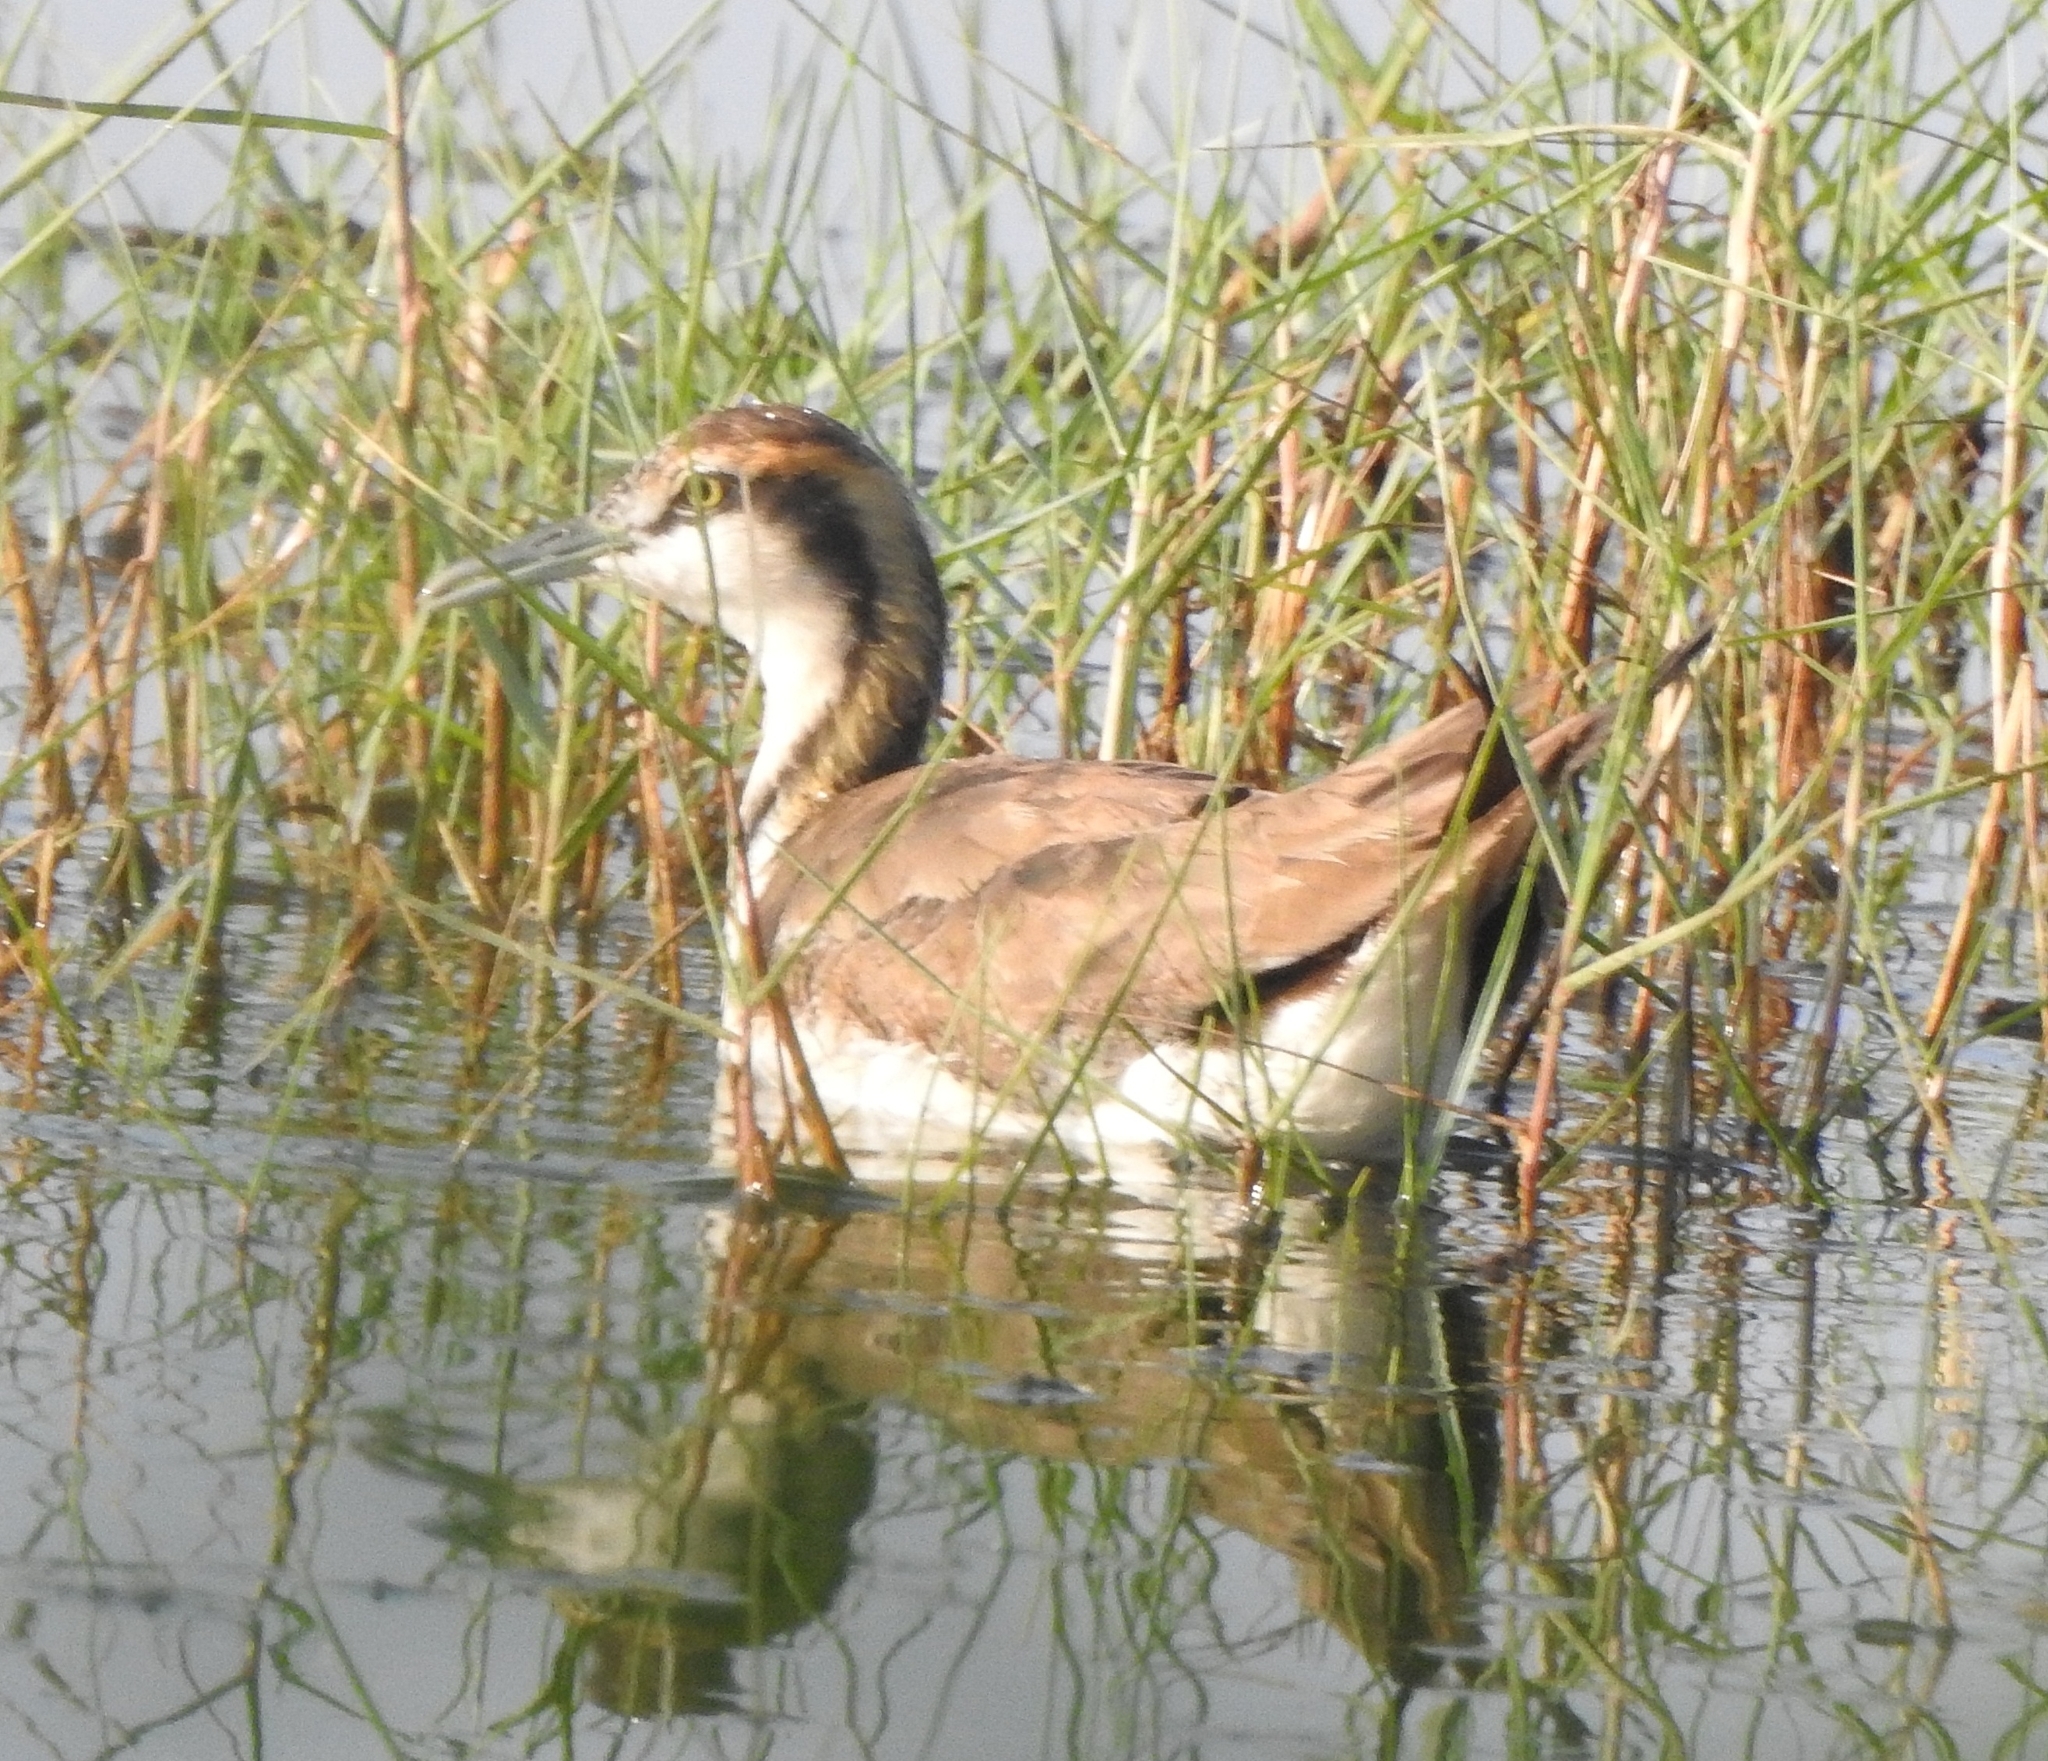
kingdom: Animalia
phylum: Chordata
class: Aves
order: Charadriiformes
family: Jacanidae
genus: Hydrophasianus
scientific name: Hydrophasianus chirurgus
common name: Pheasant-tailed jacana
